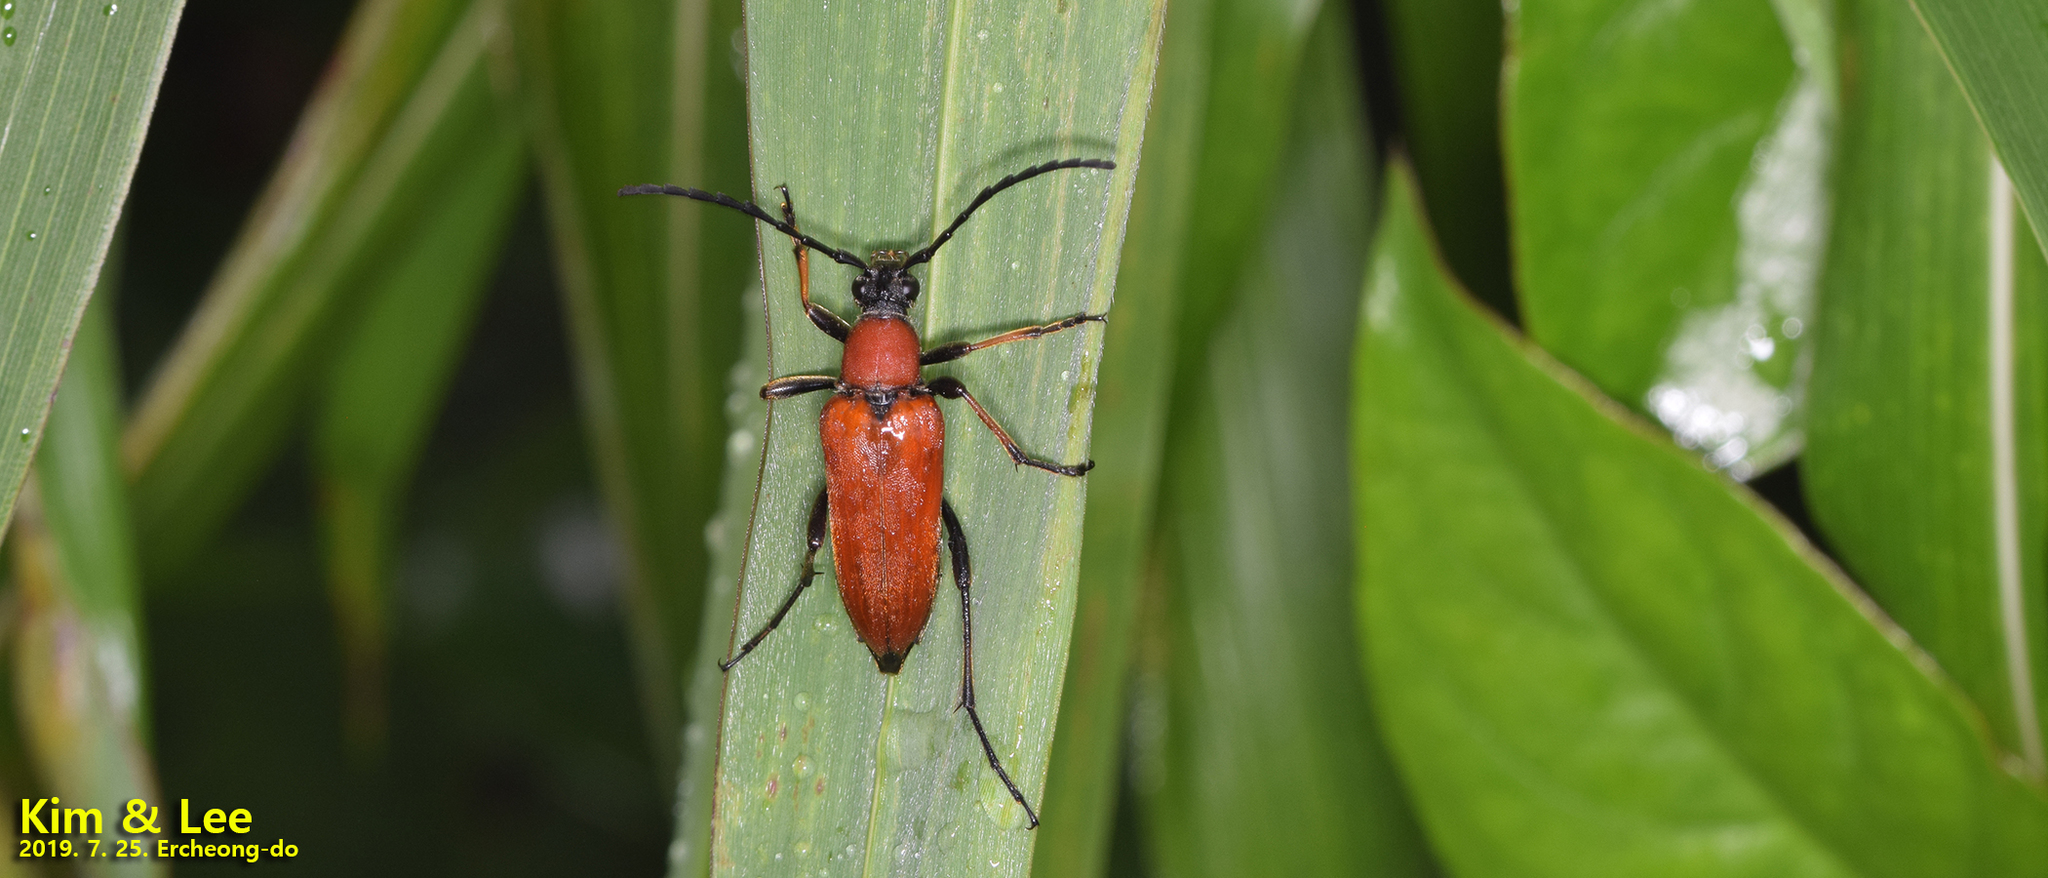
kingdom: Animalia
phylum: Arthropoda
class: Insecta
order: Coleoptera
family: Cerambycidae
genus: Stictoleptura
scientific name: Stictoleptura dichroa
